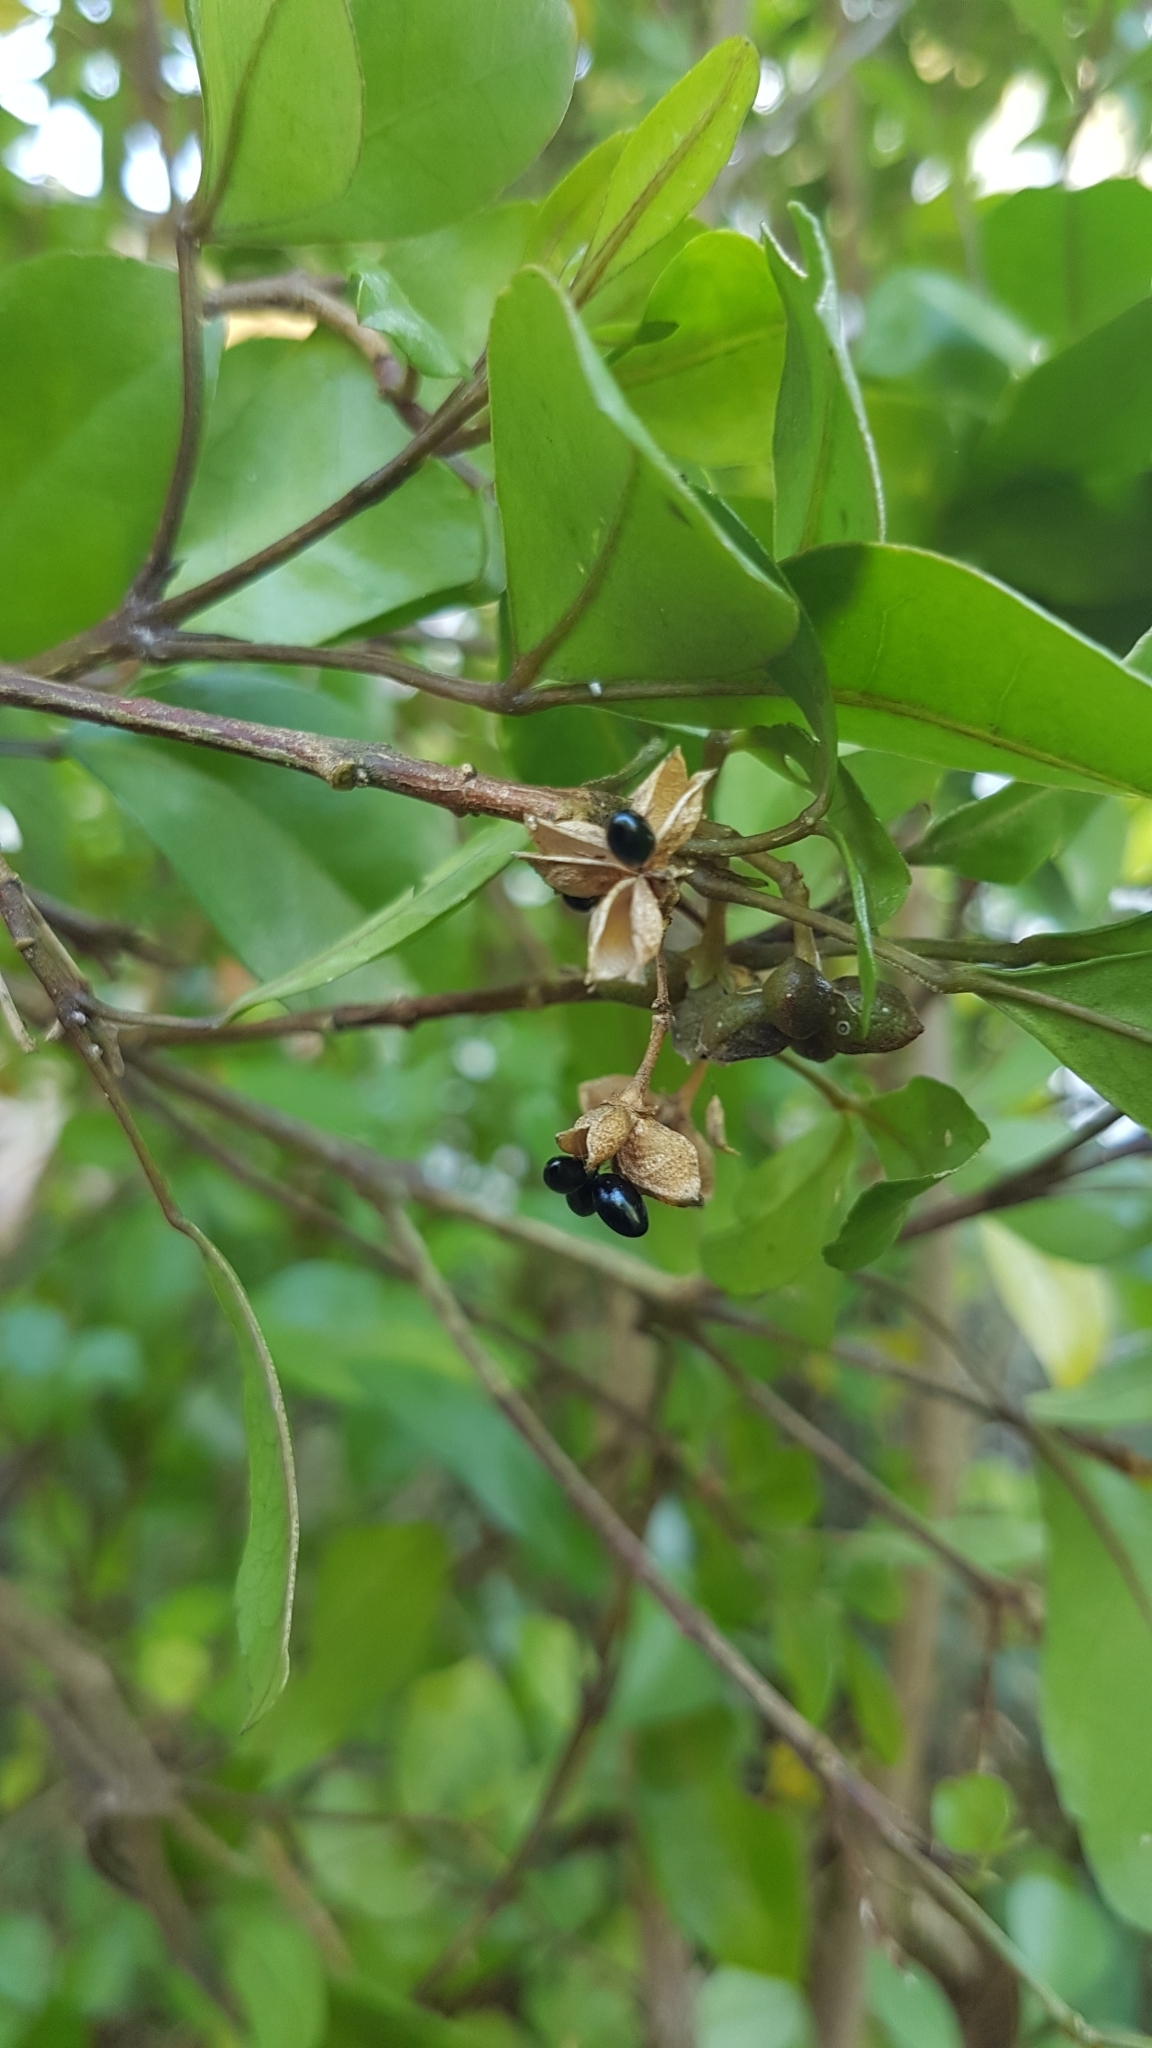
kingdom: Plantae
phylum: Tracheophyta
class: Magnoliopsida
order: Sapindales
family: Rutaceae
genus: Melicope
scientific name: Melicope ternata
